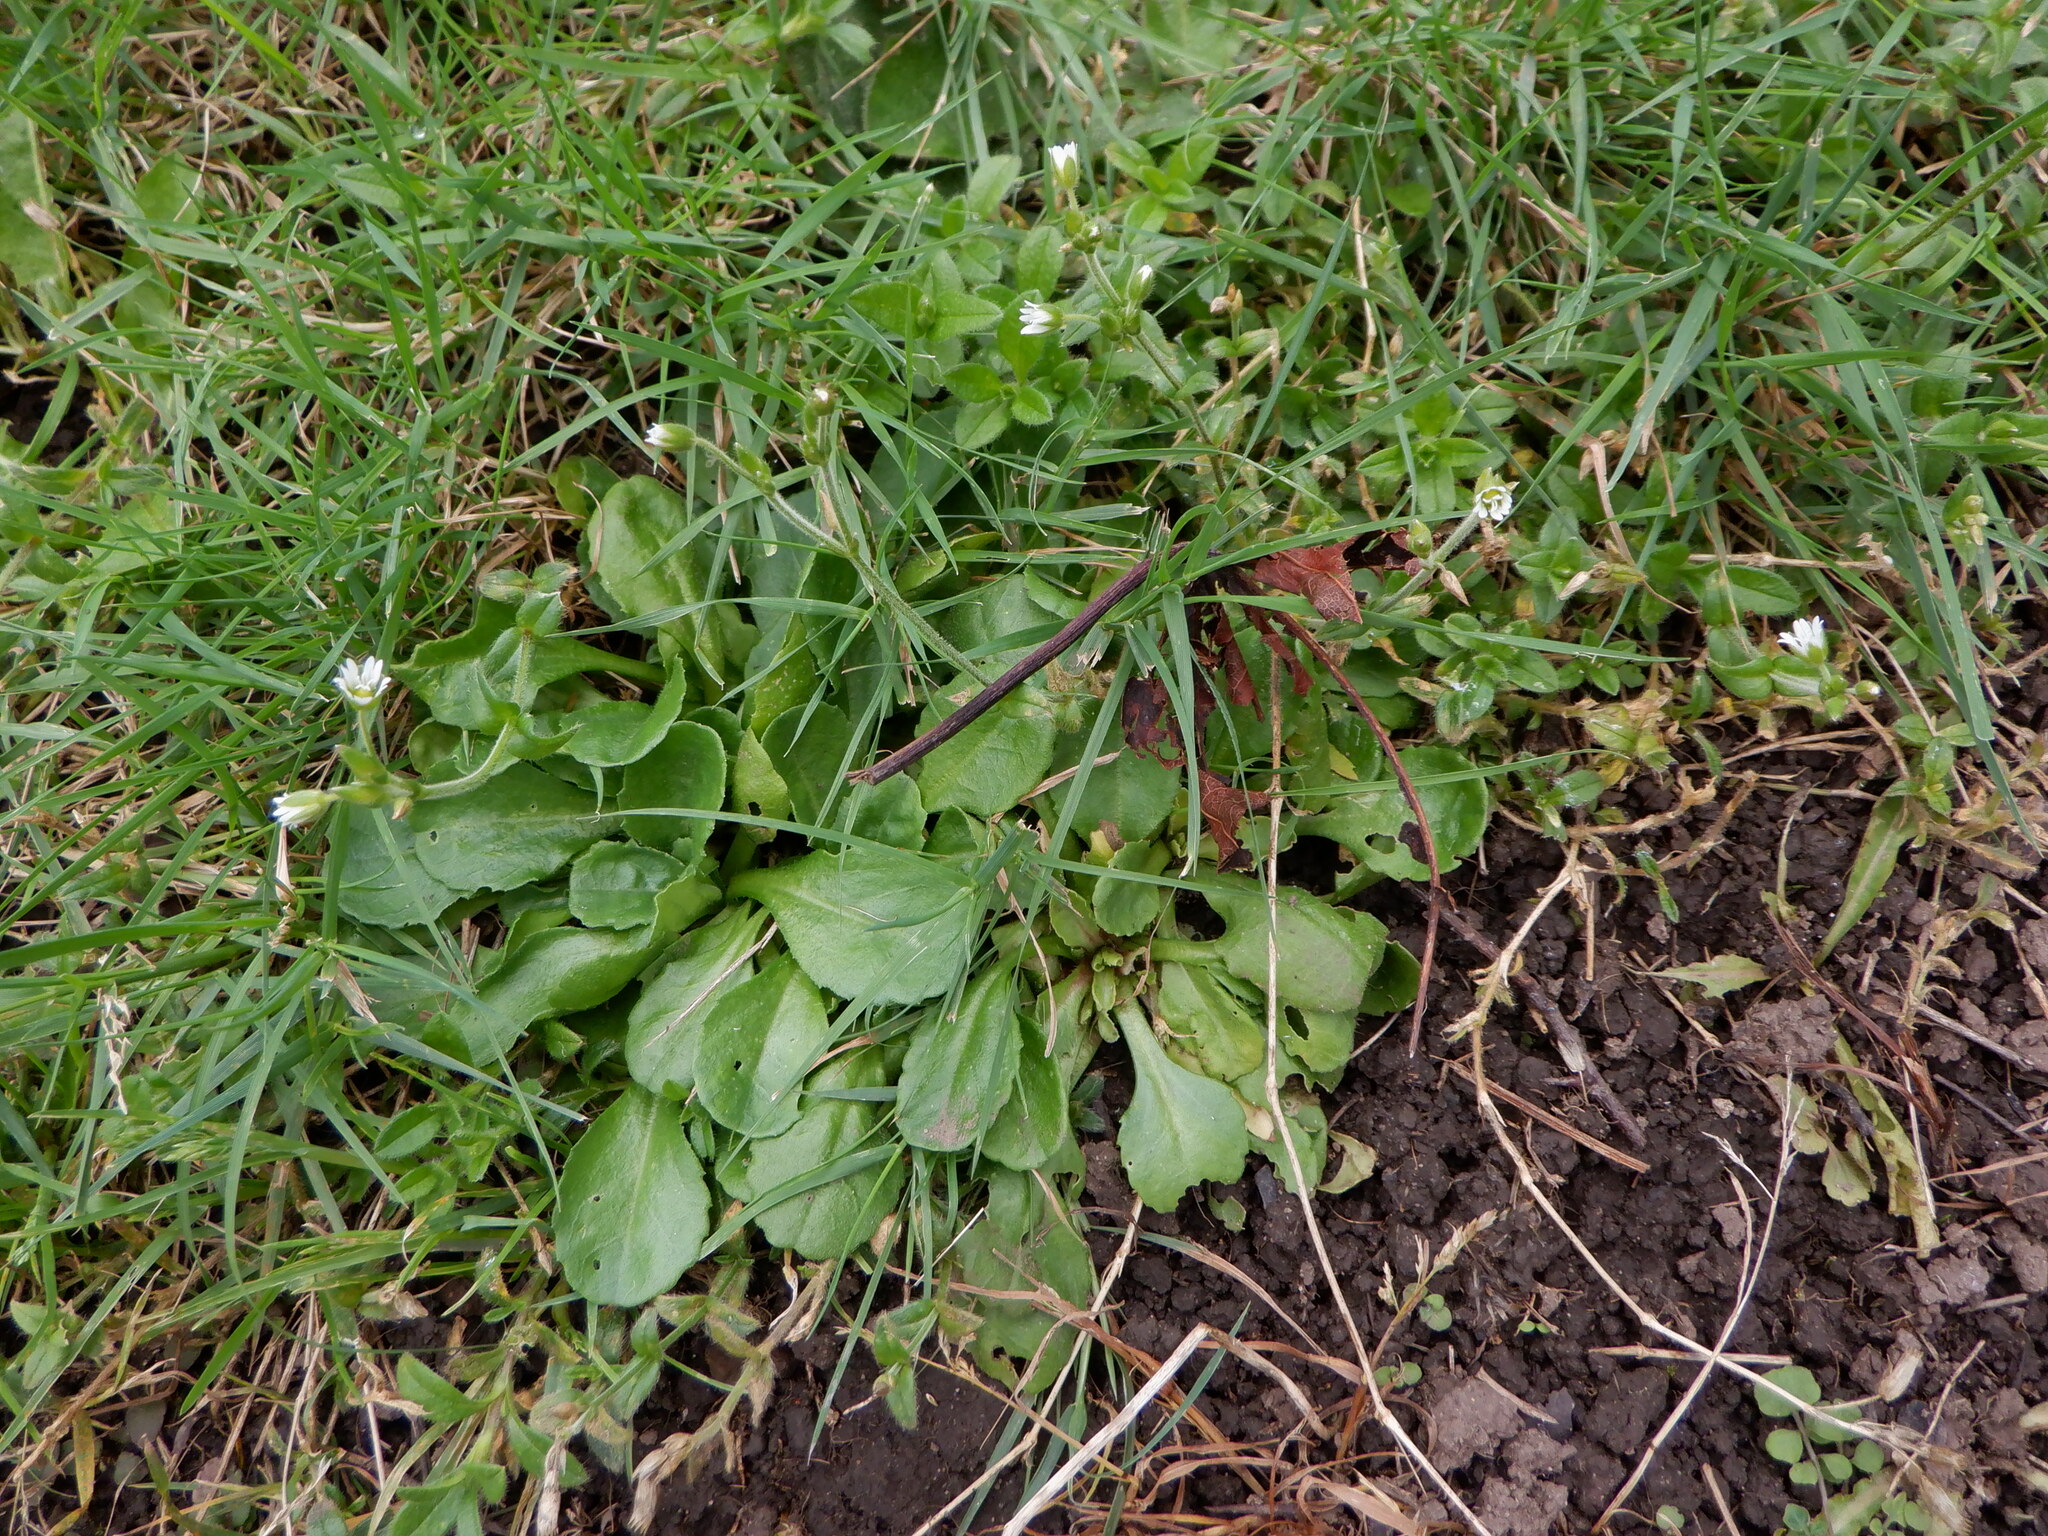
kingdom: Plantae
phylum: Tracheophyta
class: Magnoliopsida
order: Asterales
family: Asteraceae
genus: Bellis
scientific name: Bellis perennis
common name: Lawndaisy
